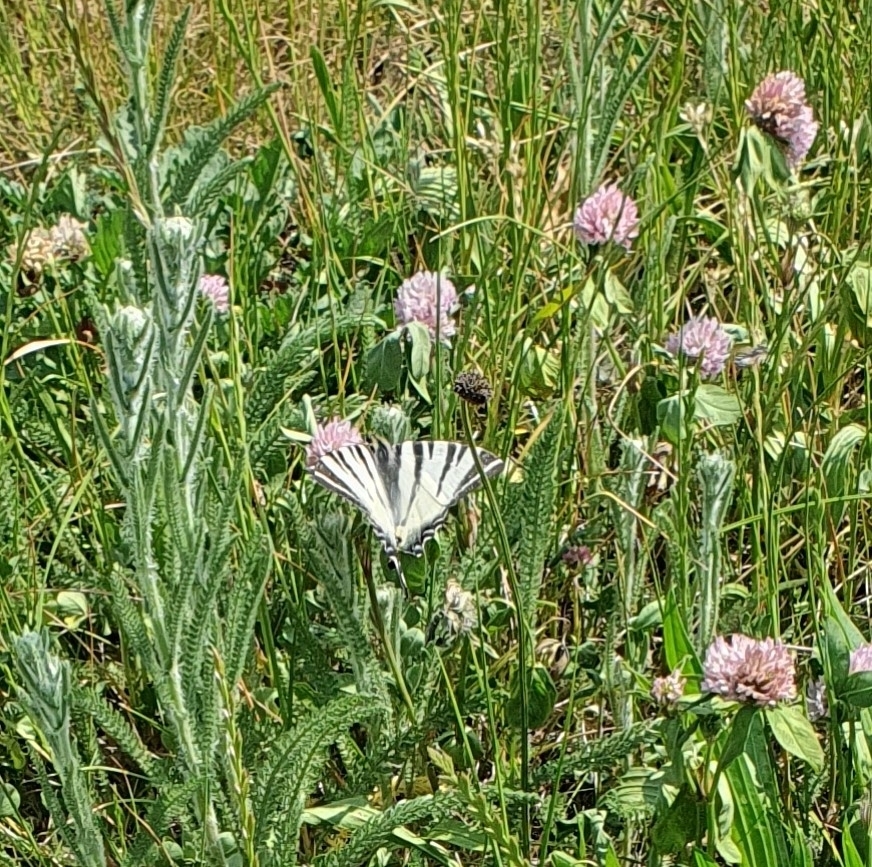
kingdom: Animalia
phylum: Arthropoda
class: Insecta
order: Lepidoptera
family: Papilionidae
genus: Iphiclides
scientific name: Iphiclides podalirius
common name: Scarce swallowtail
